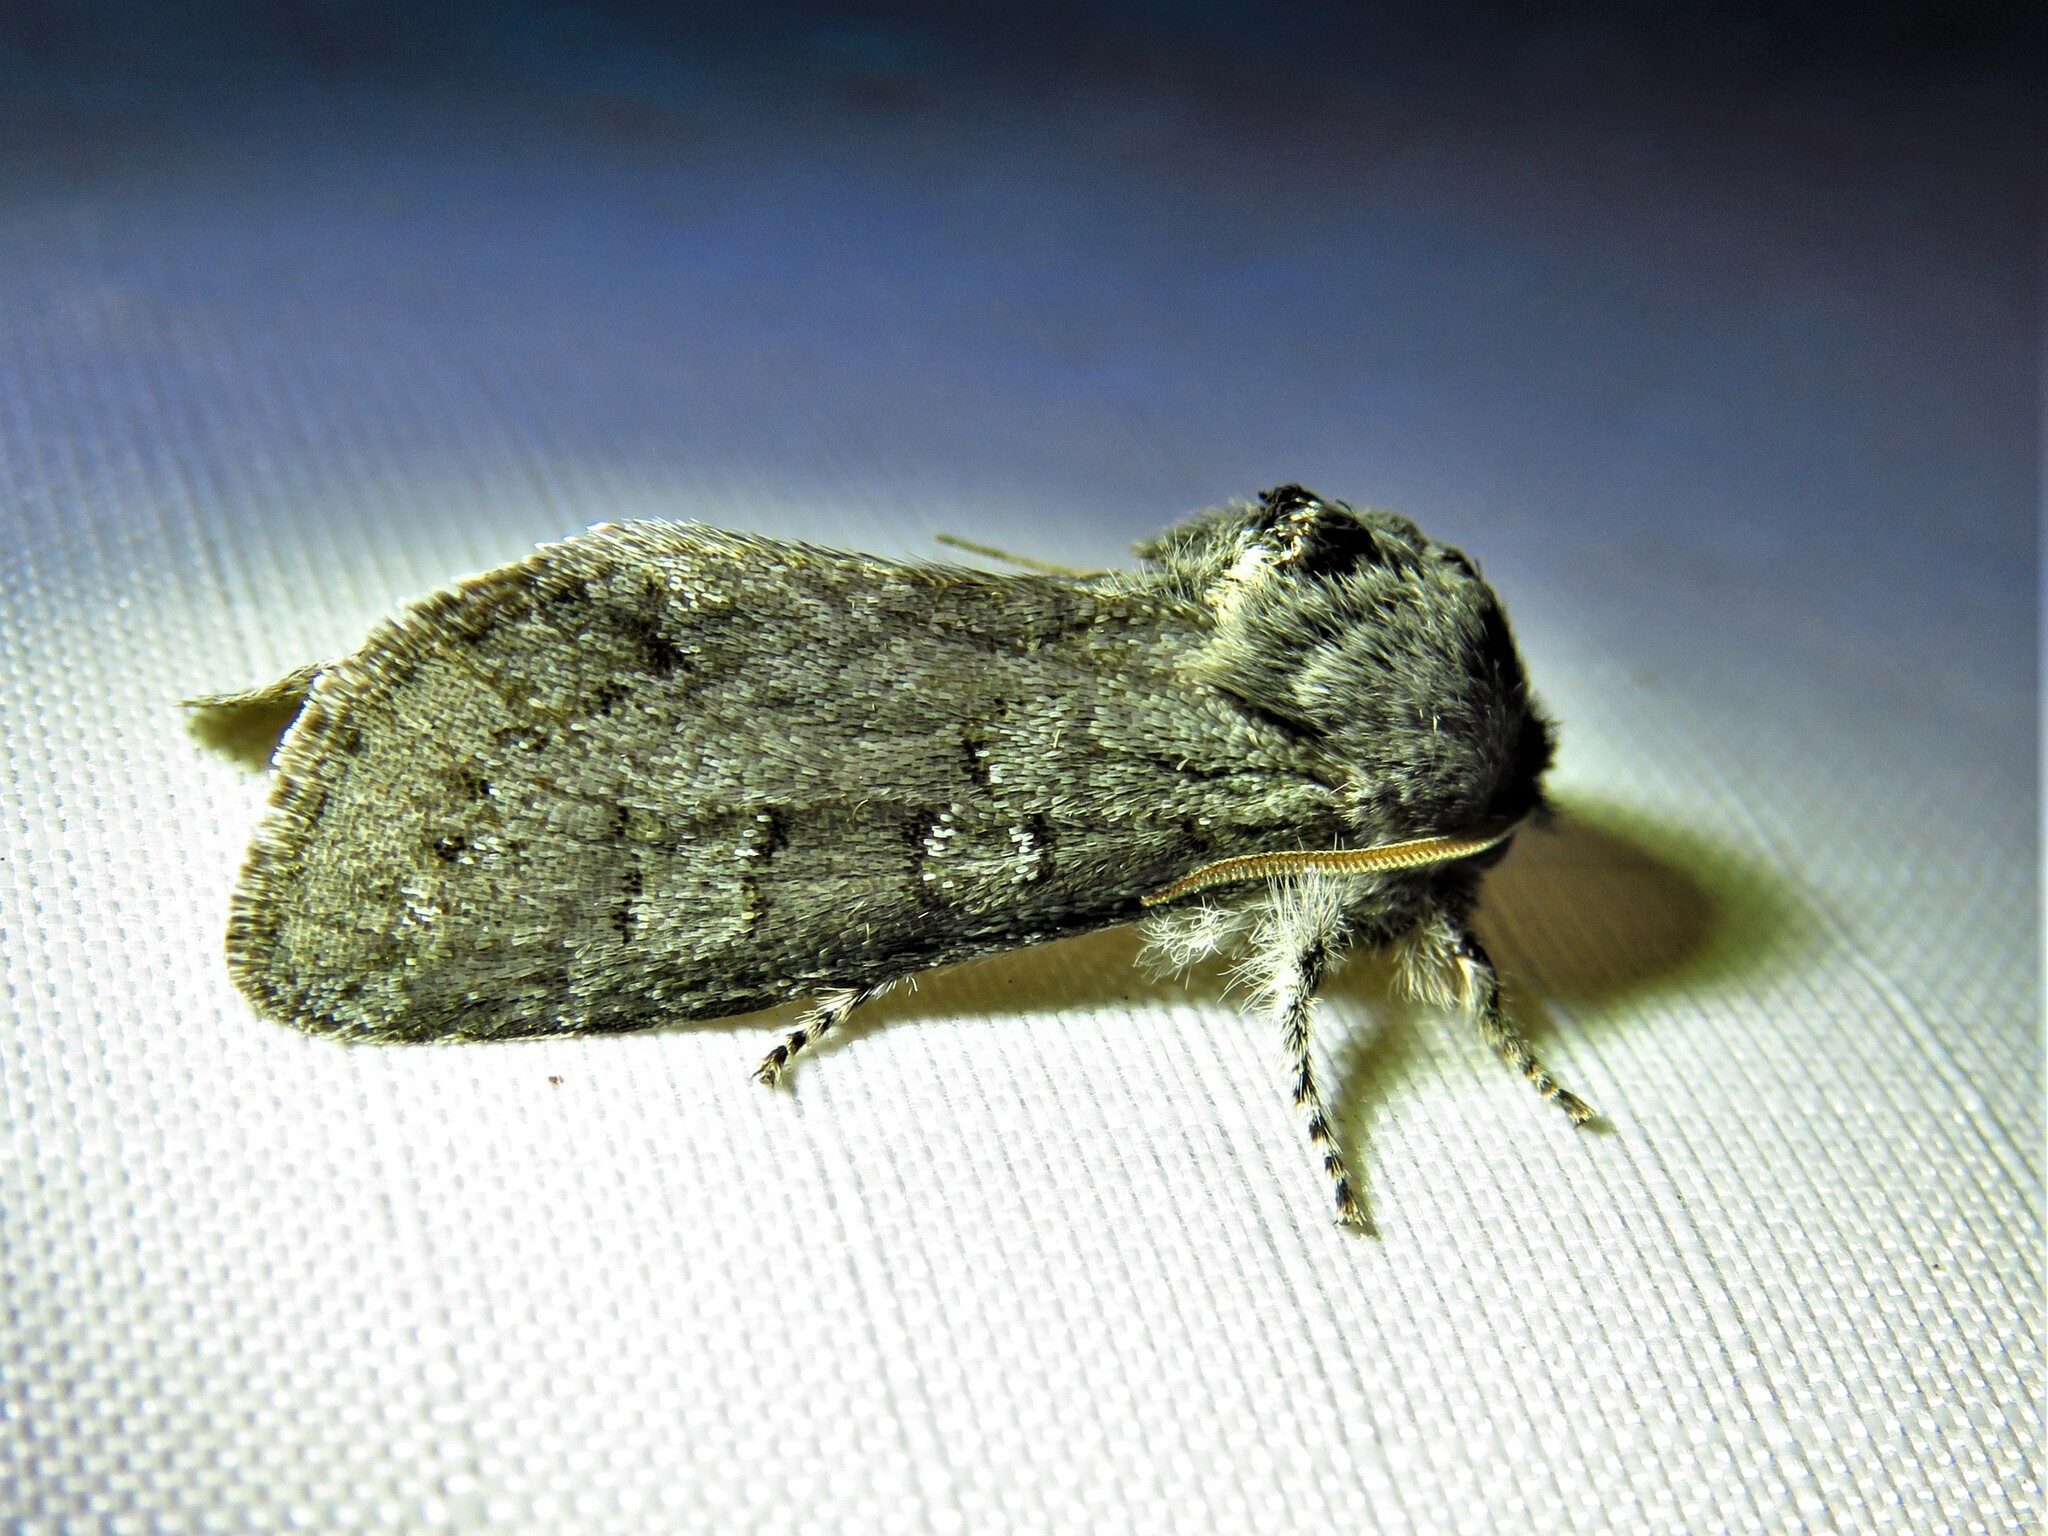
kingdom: Animalia
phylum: Arthropoda
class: Insecta
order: Lepidoptera
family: Noctuidae
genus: Psaphida
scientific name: Psaphida rolandi
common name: Roland's sallow
